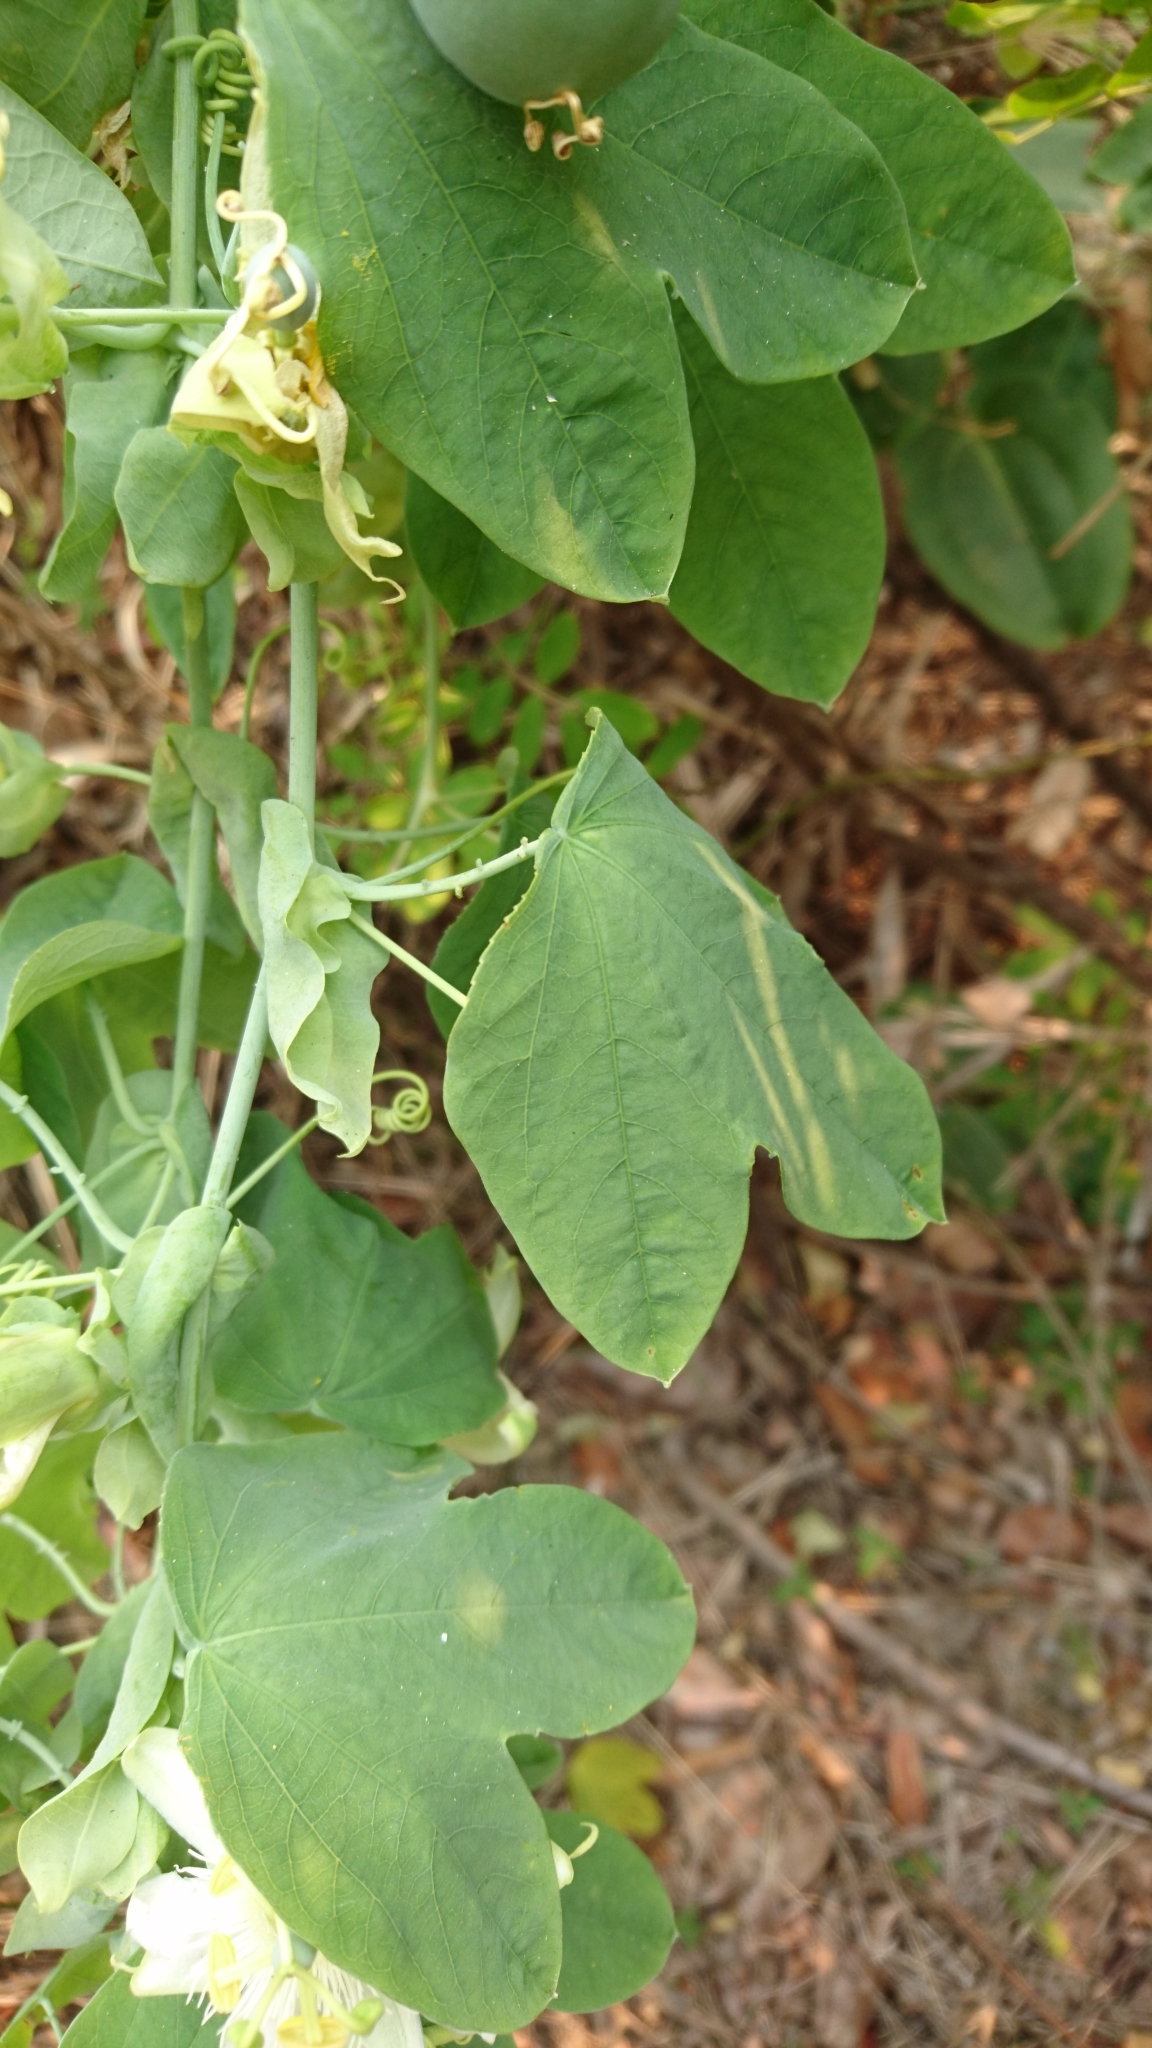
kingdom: Plantae
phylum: Tracheophyta
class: Magnoliopsida
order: Malpighiales
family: Passifloraceae
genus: Passiflora
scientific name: Passiflora subpeltata
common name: White passionflower
